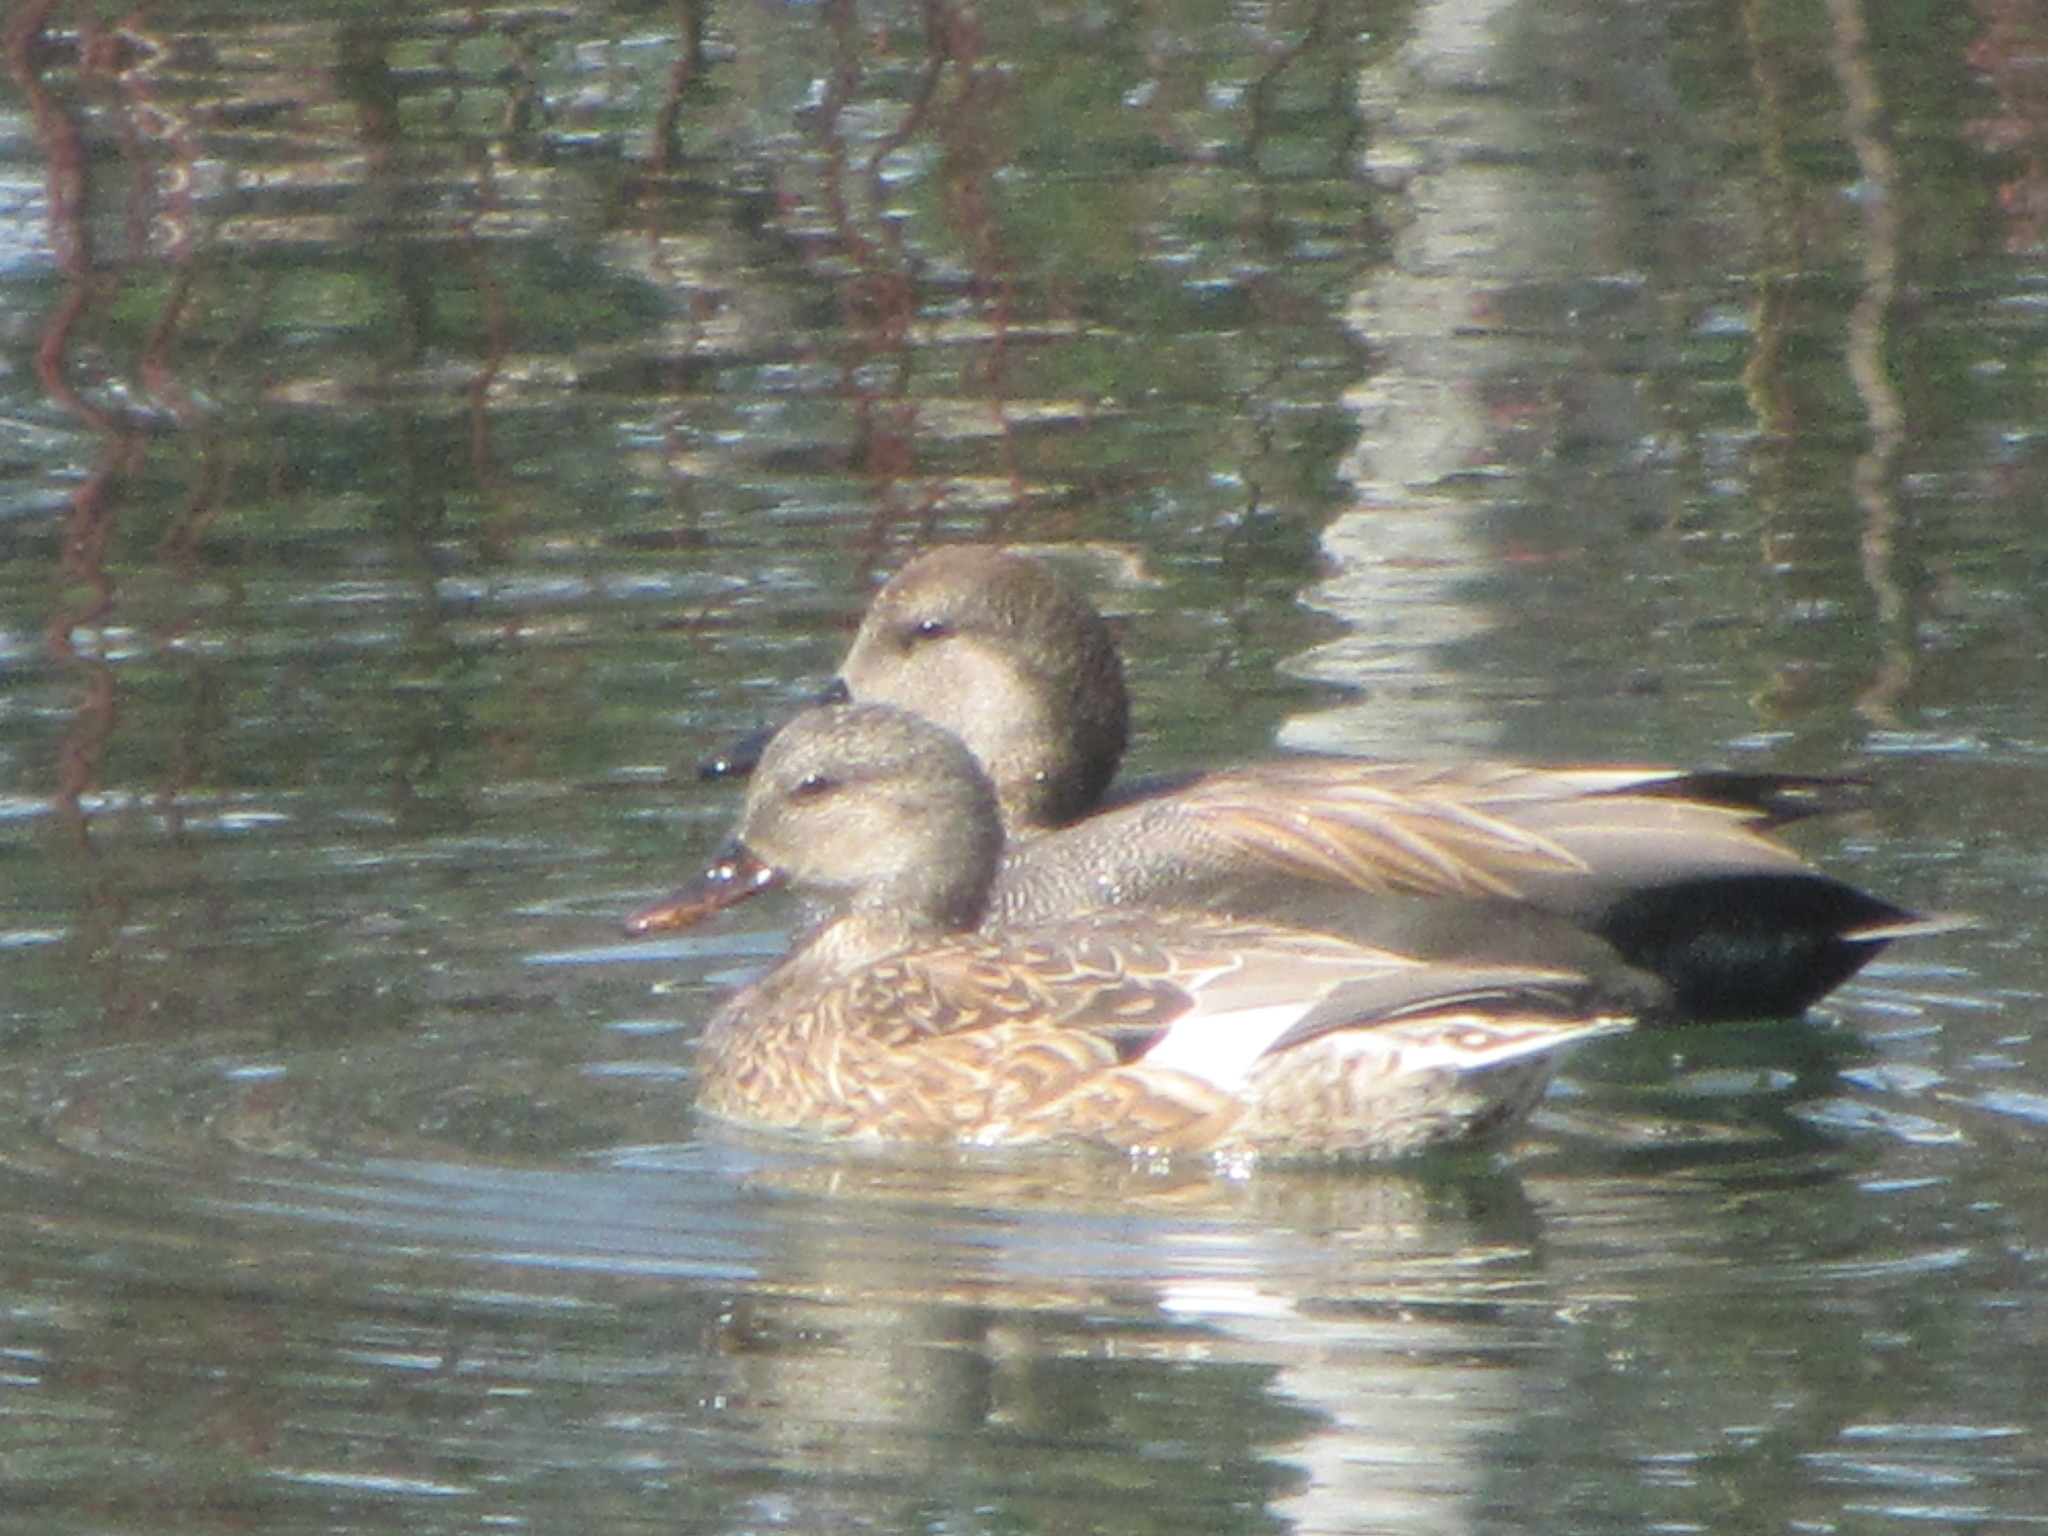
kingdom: Animalia
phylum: Chordata
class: Aves
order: Anseriformes
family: Anatidae
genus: Mareca
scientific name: Mareca strepera
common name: Gadwall
